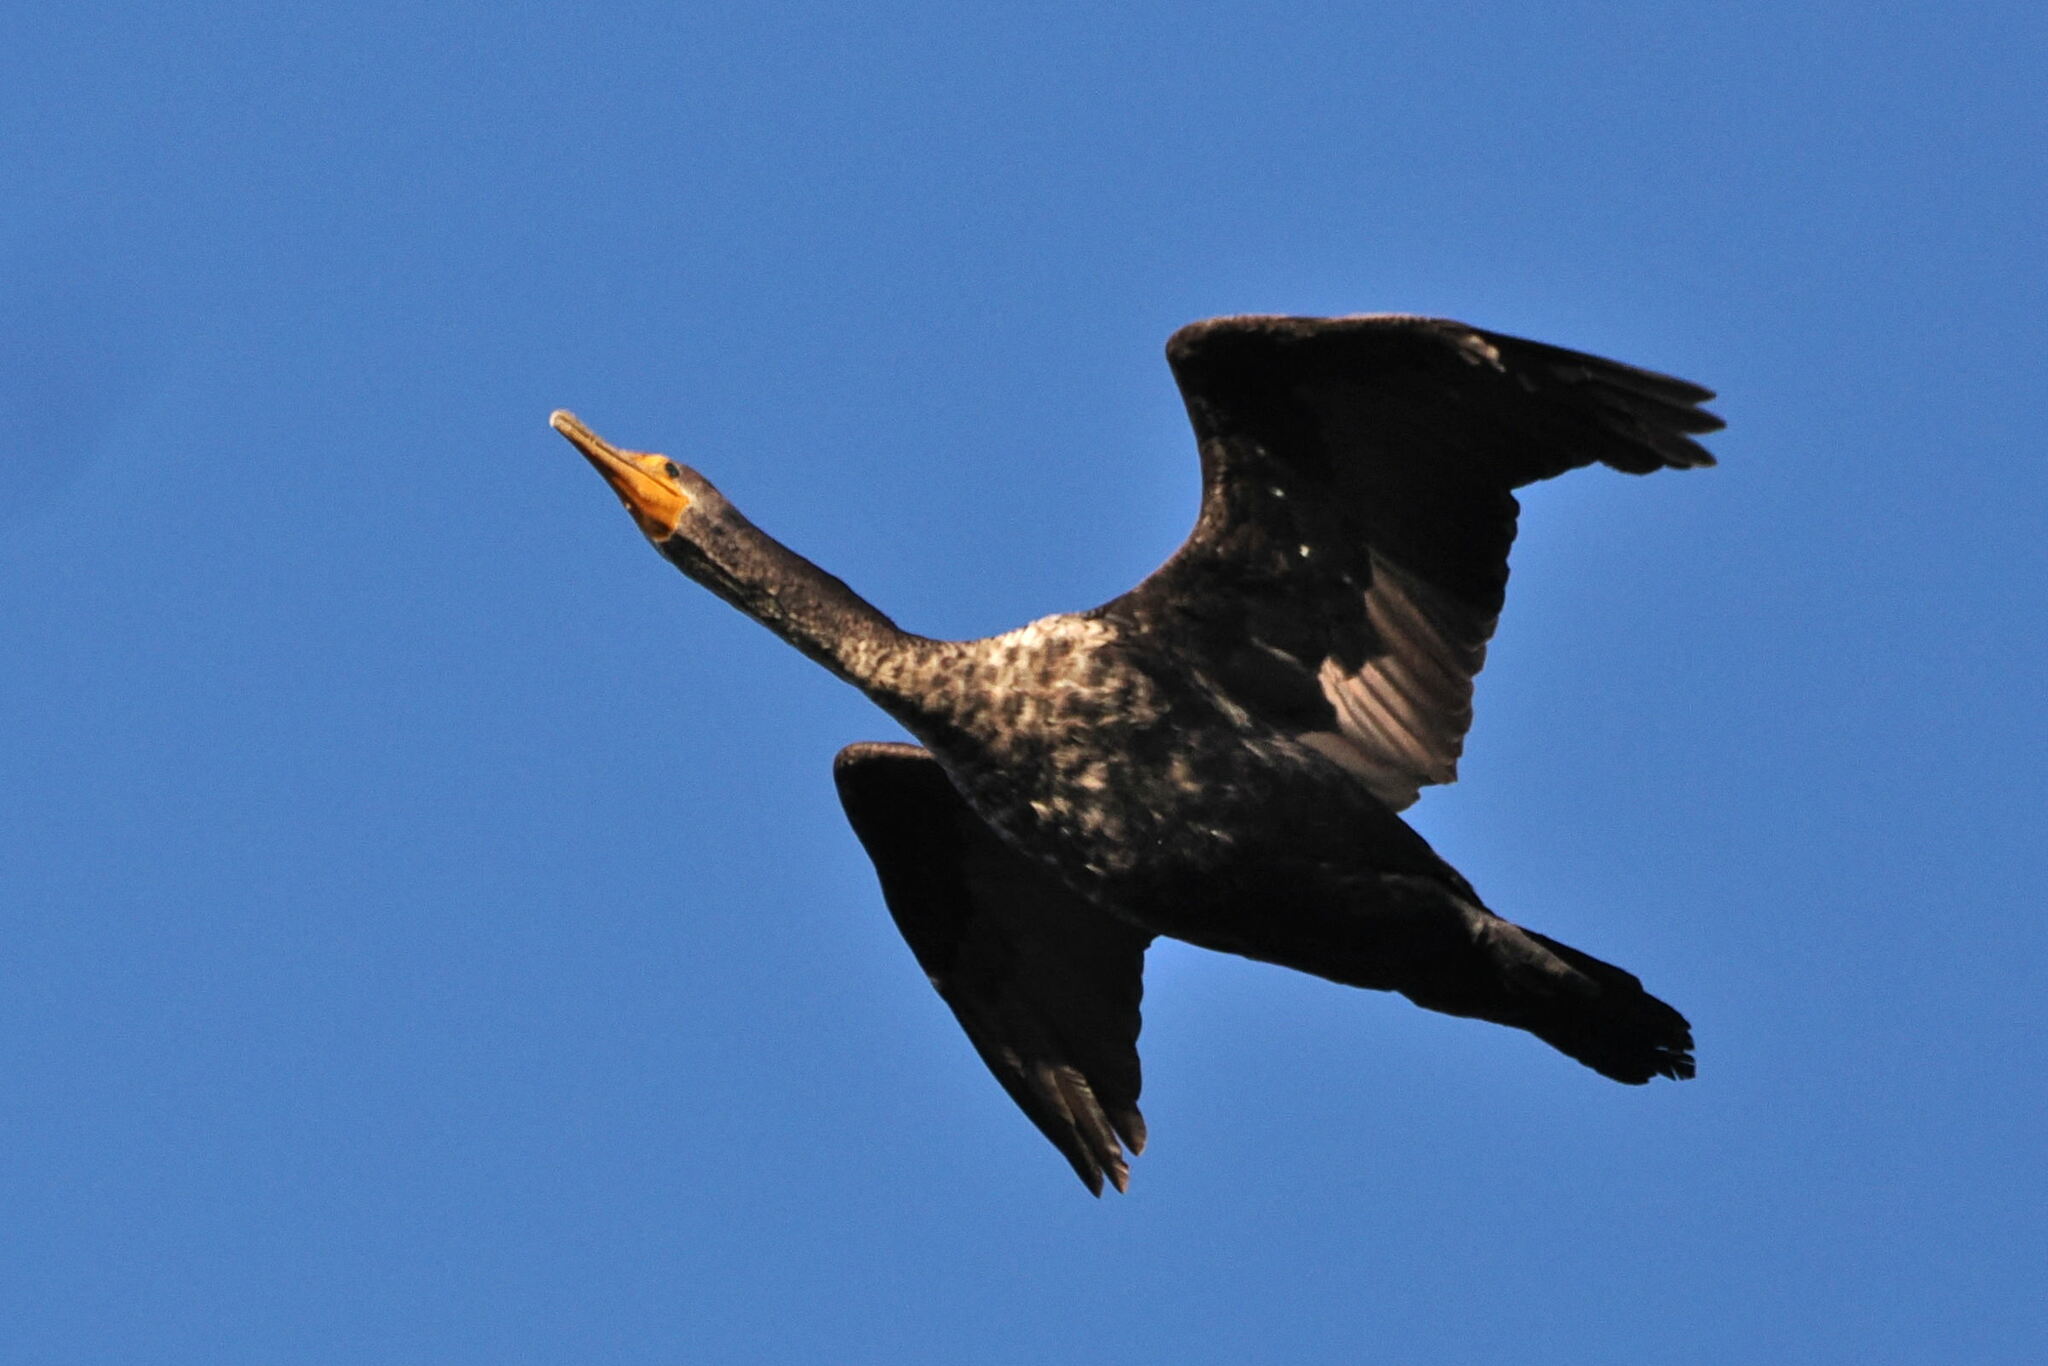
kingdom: Animalia
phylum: Chordata
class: Aves
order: Suliformes
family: Phalacrocoracidae
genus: Phalacrocorax
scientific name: Phalacrocorax auritus
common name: Double-crested cormorant
